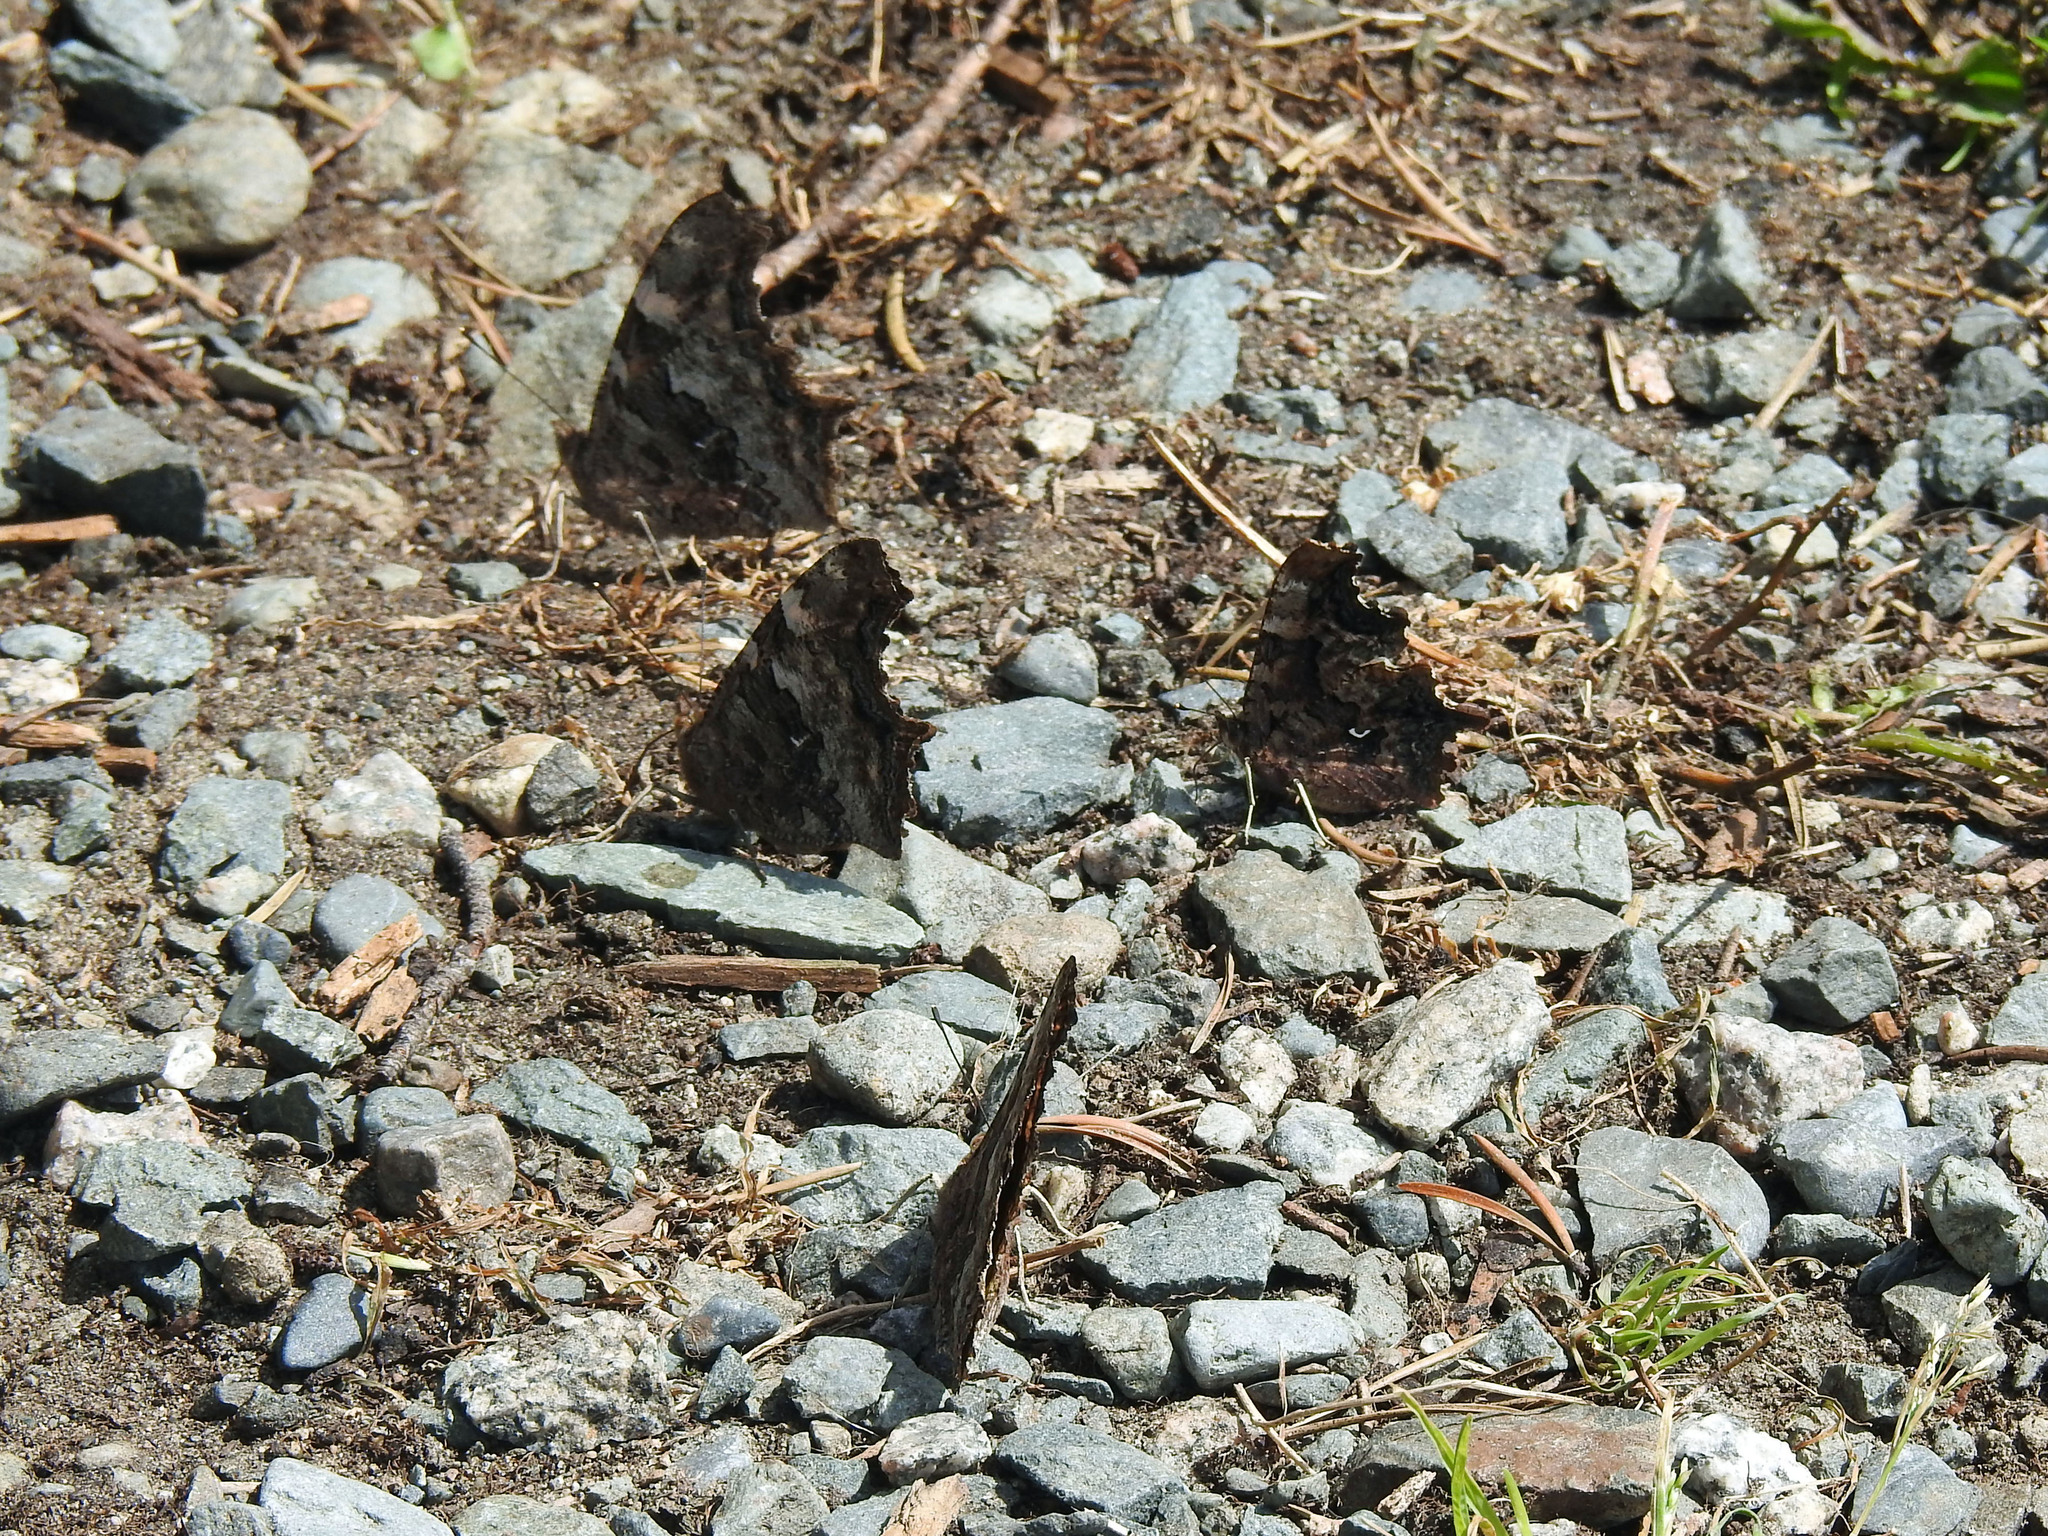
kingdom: Animalia
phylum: Arthropoda
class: Insecta
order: Lepidoptera
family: Nymphalidae
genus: Polygonia
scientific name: Polygonia faunus
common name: Green comma
